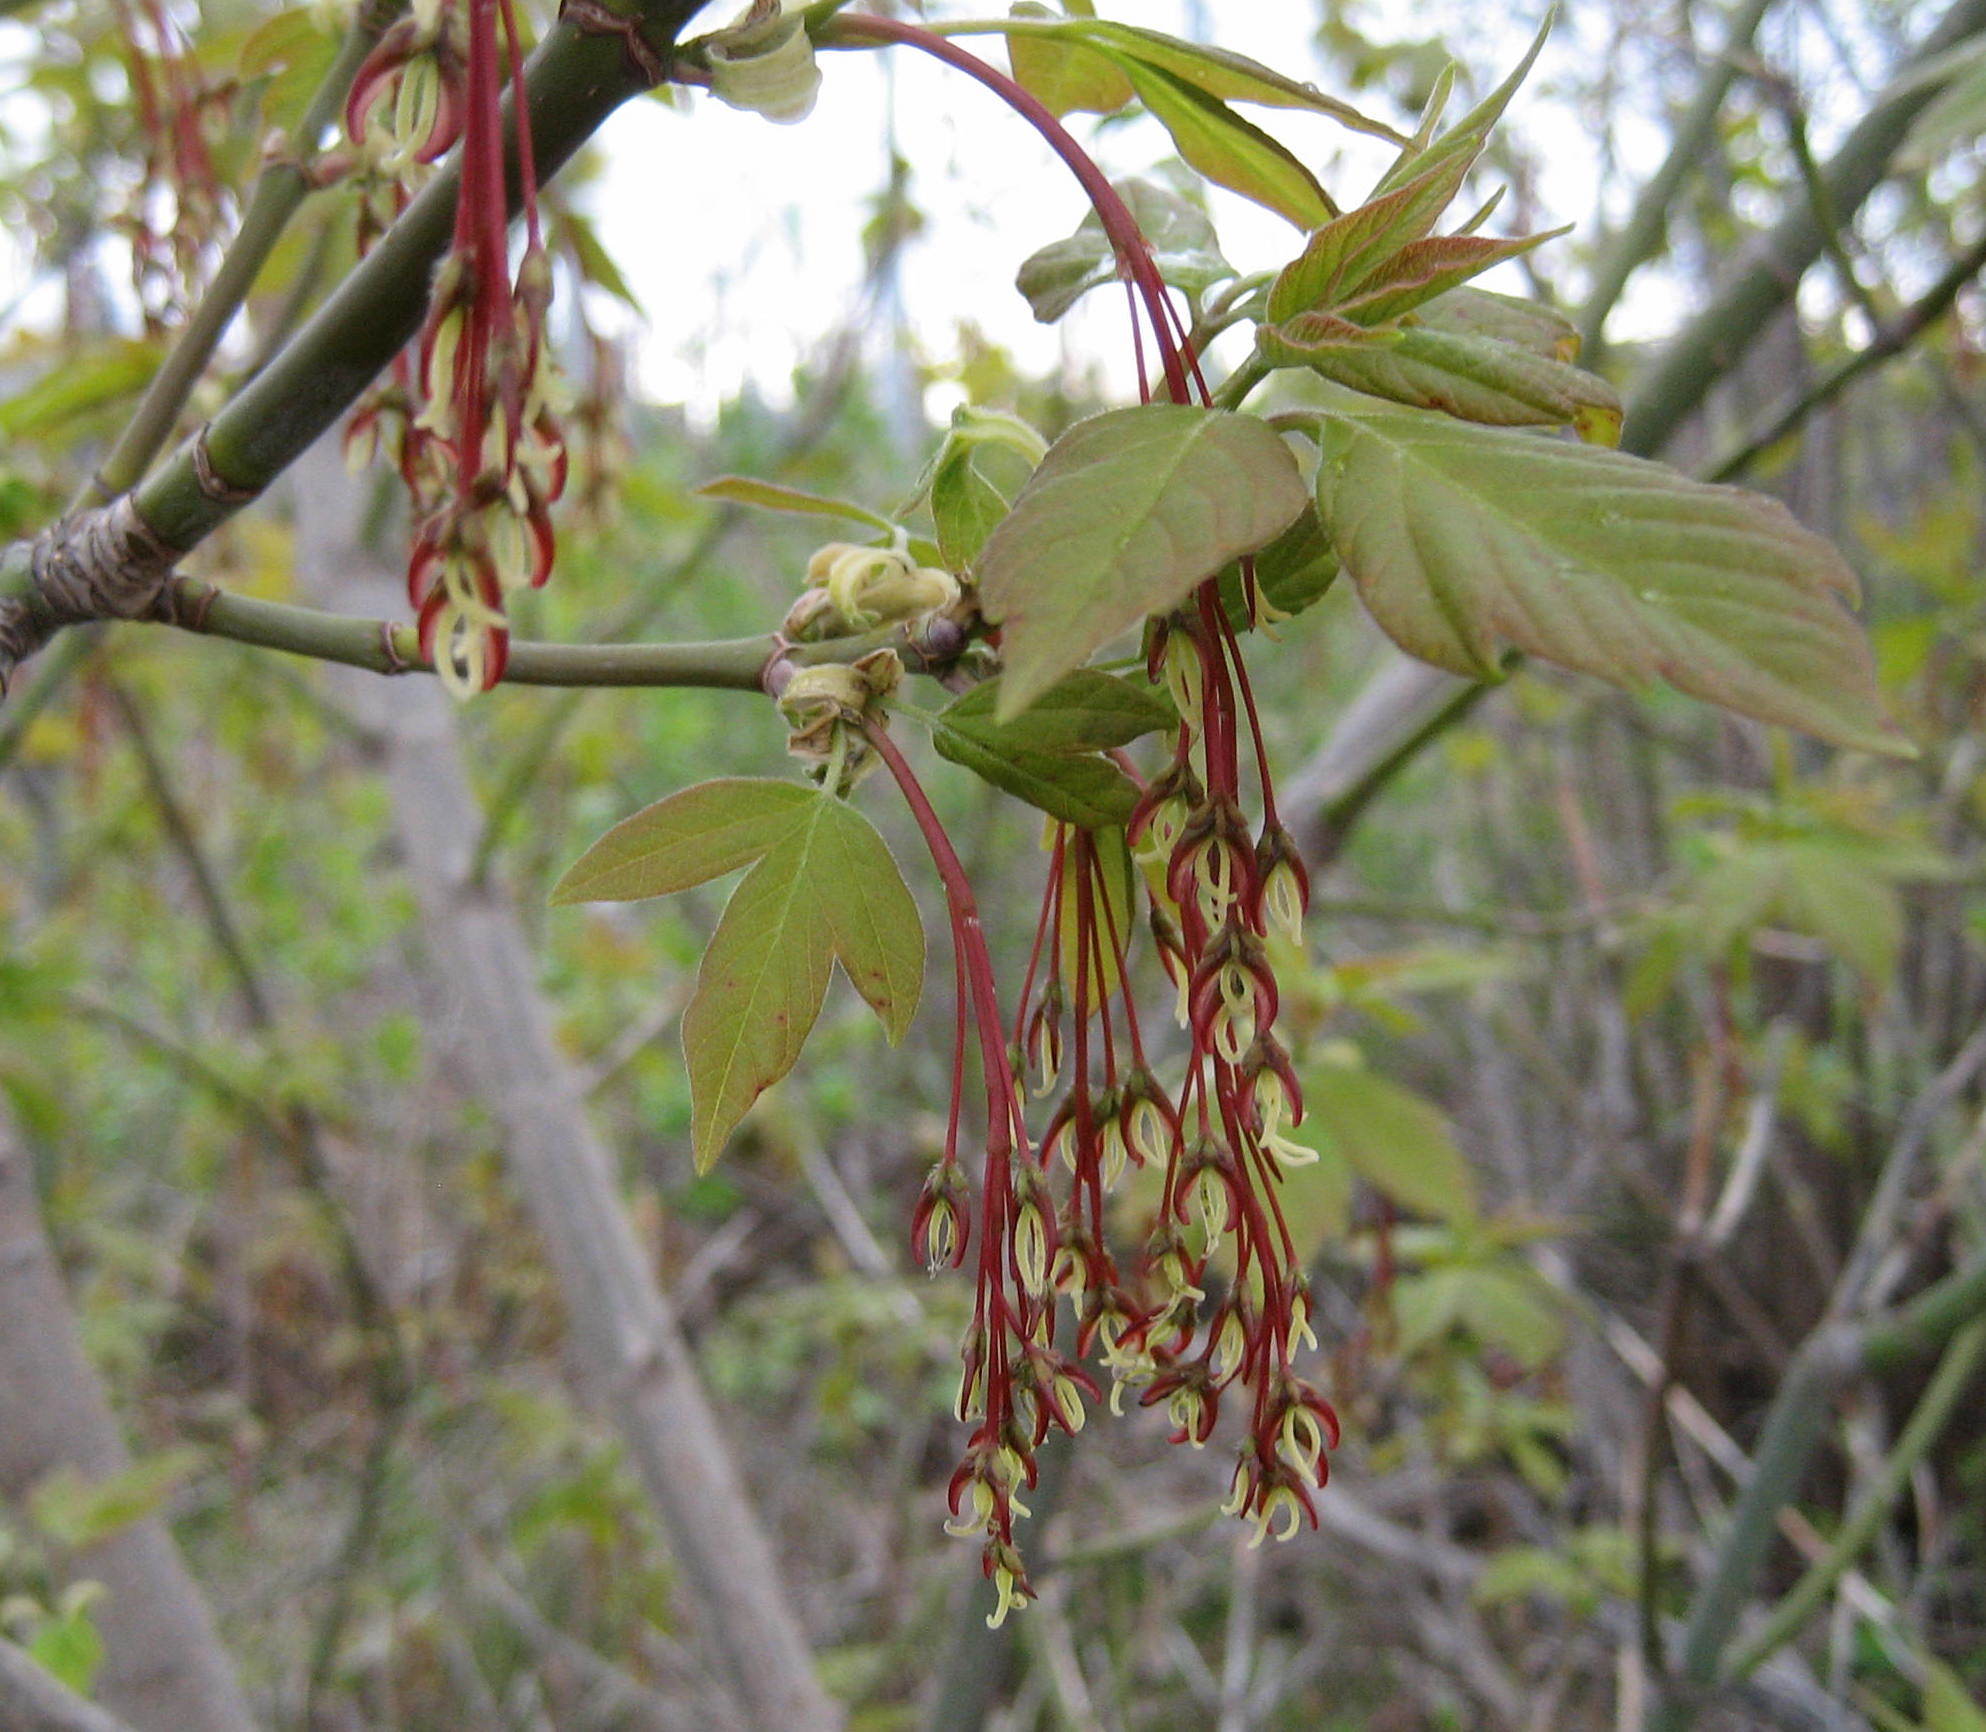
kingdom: Plantae
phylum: Tracheophyta
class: Magnoliopsida
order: Sapindales
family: Sapindaceae
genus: Acer
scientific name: Acer negundo
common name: Ashleaf maple
